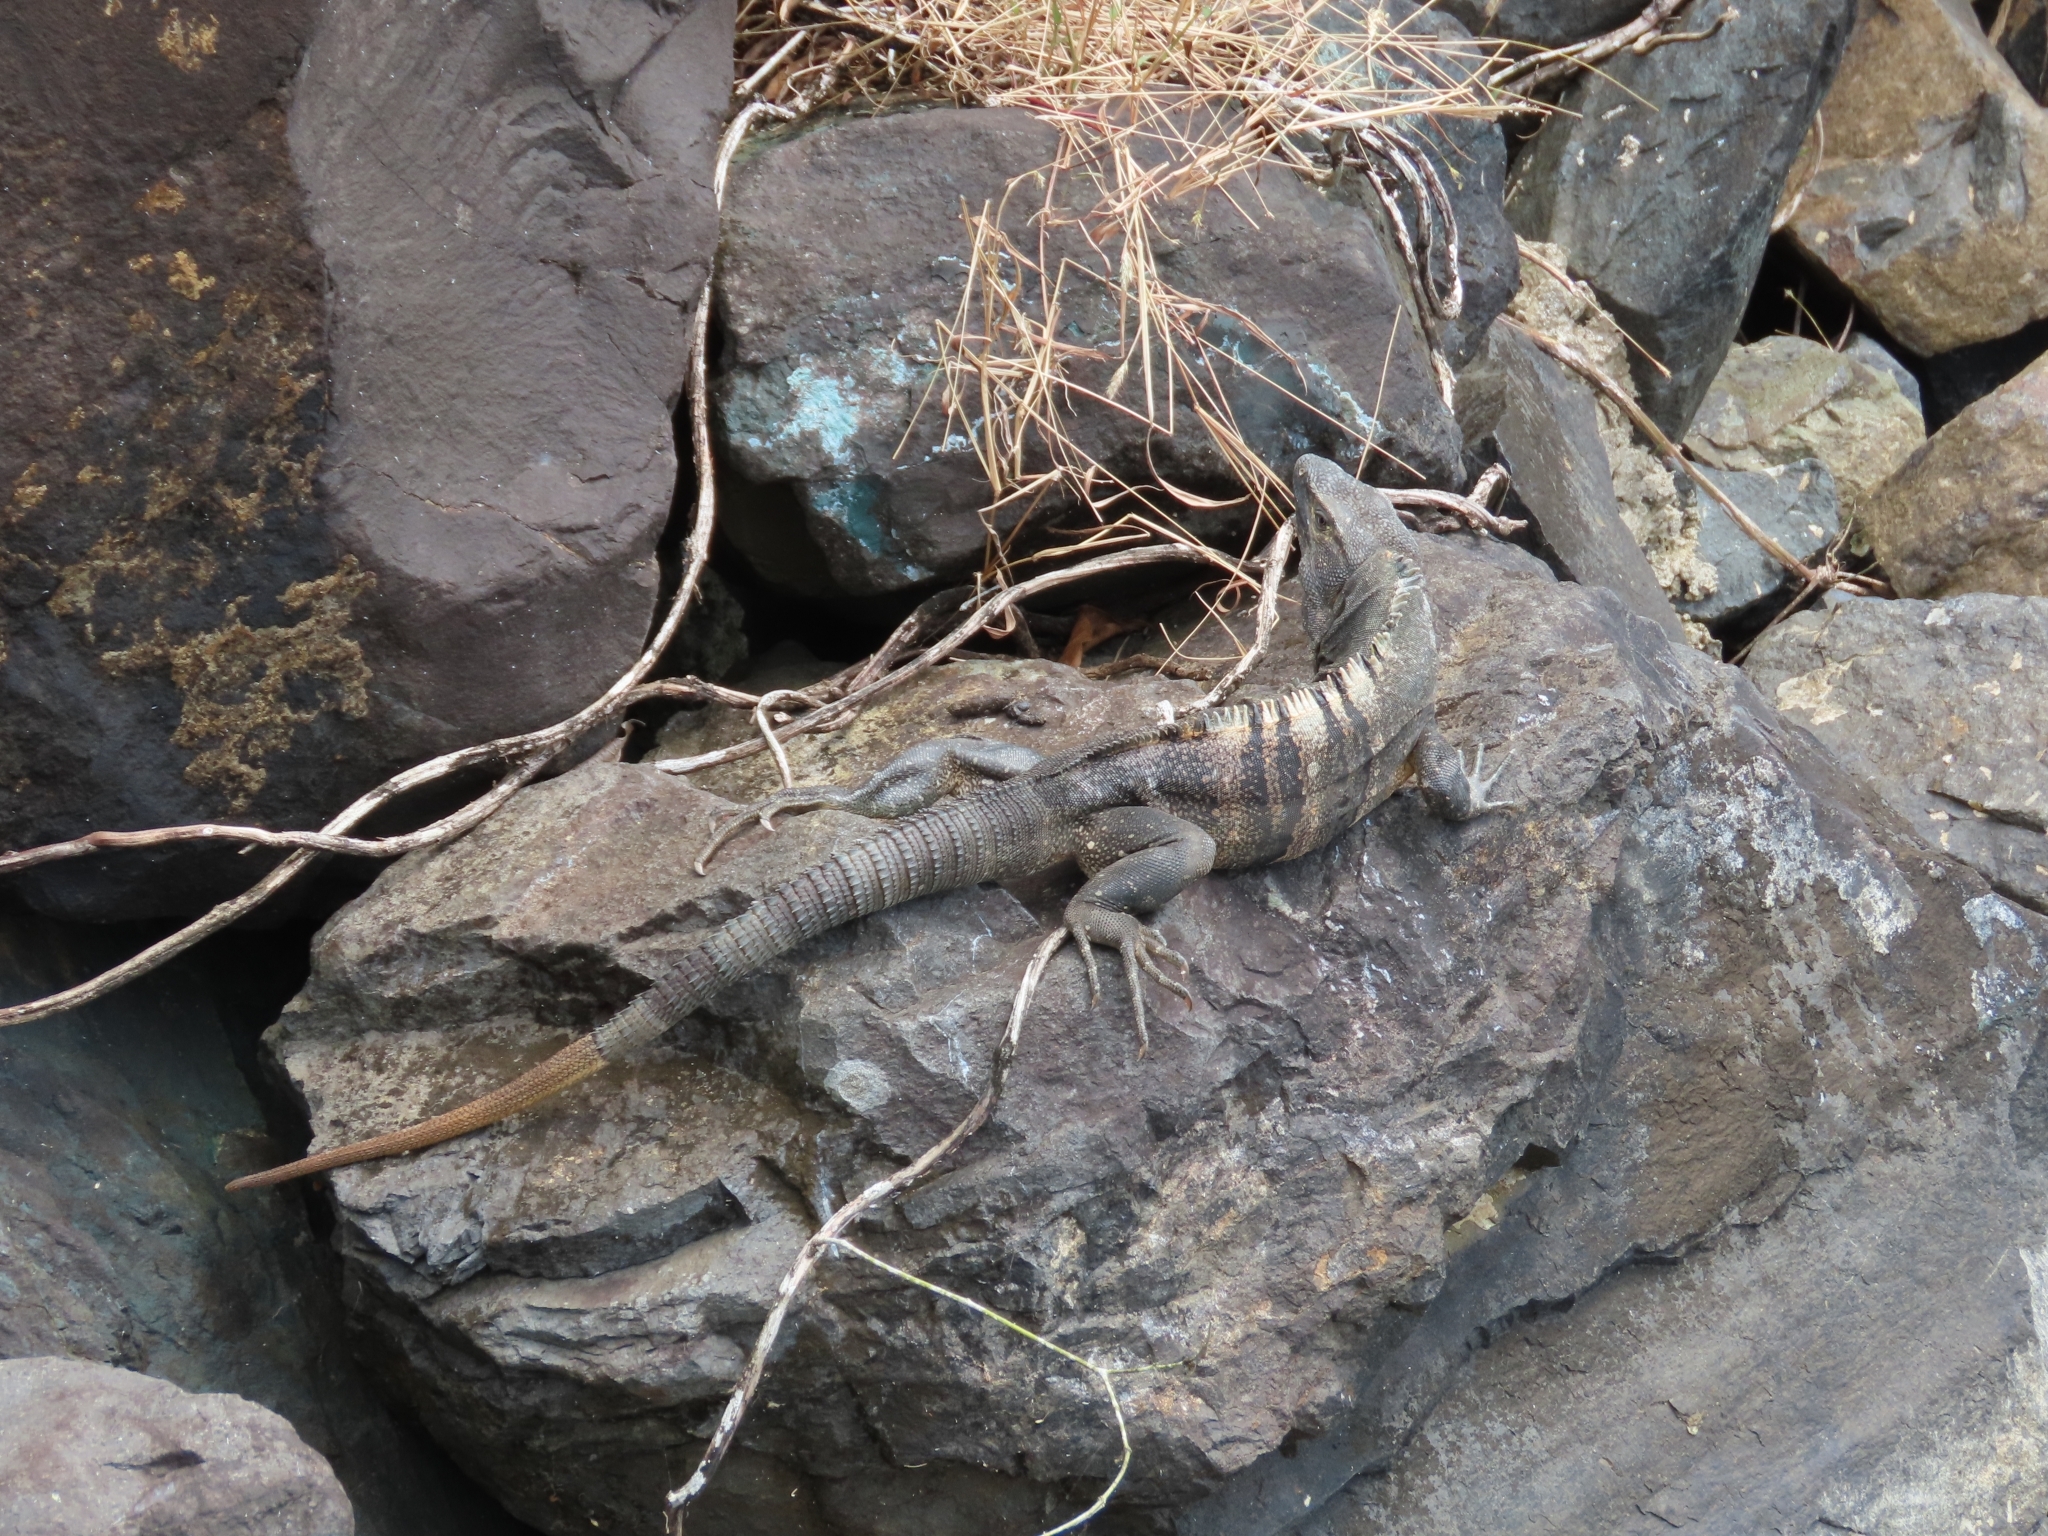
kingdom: Animalia
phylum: Chordata
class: Squamata
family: Iguanidae
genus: Ctenosaura
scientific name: Ctenosaura similis
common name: Black spiny-tailed iguana
